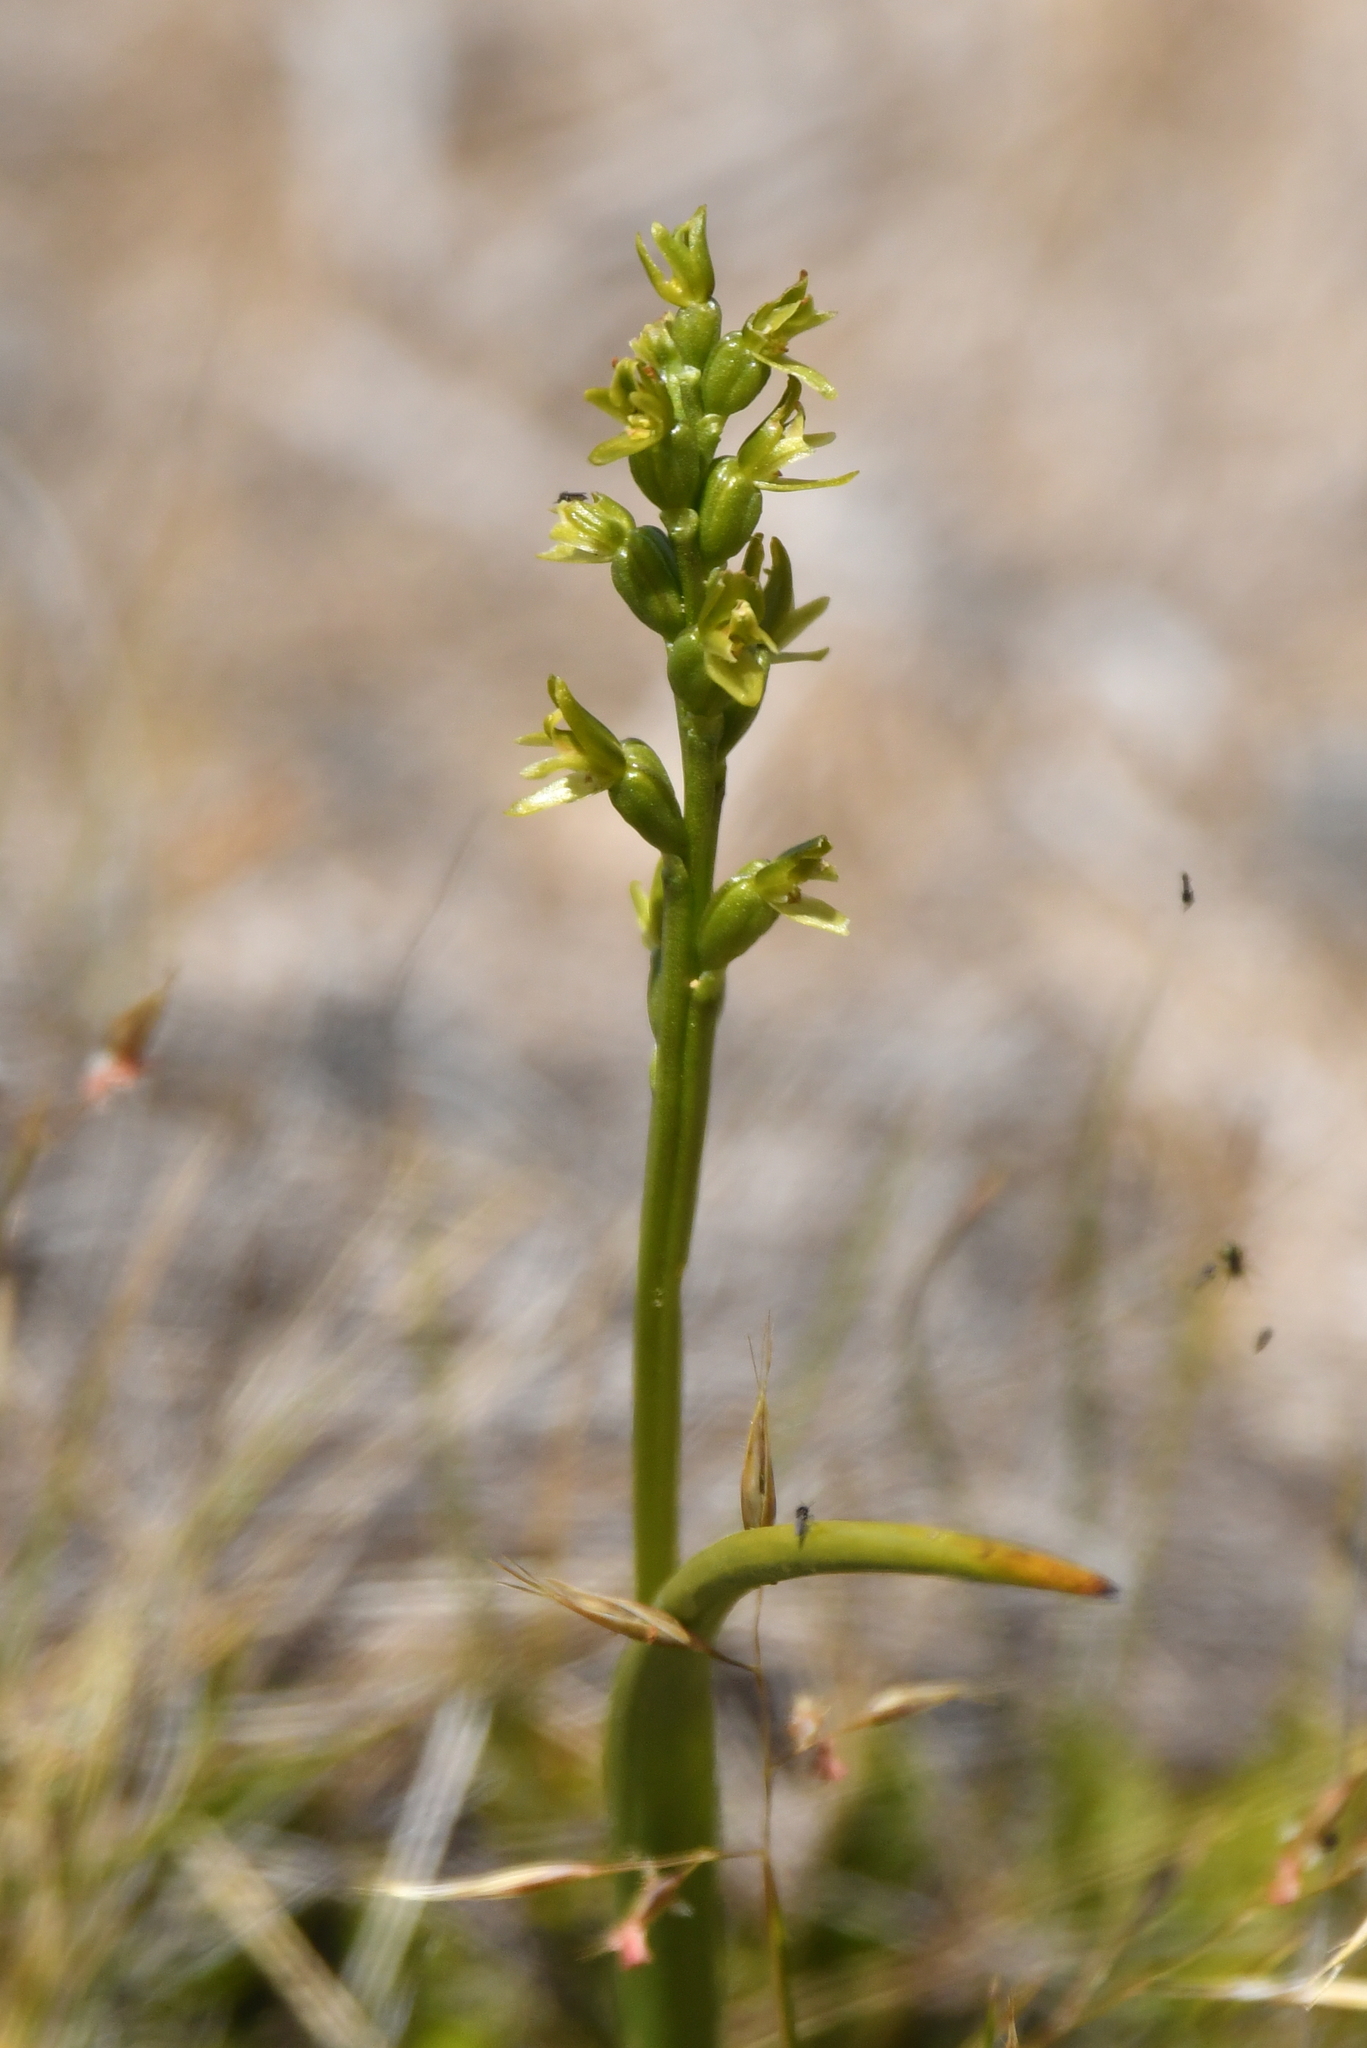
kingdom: Plantae
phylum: Tracheophyta
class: Liliopsida
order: Asparagales
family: Orchidaceae
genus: Prasophyllum
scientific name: Prasophyllum colensoi
